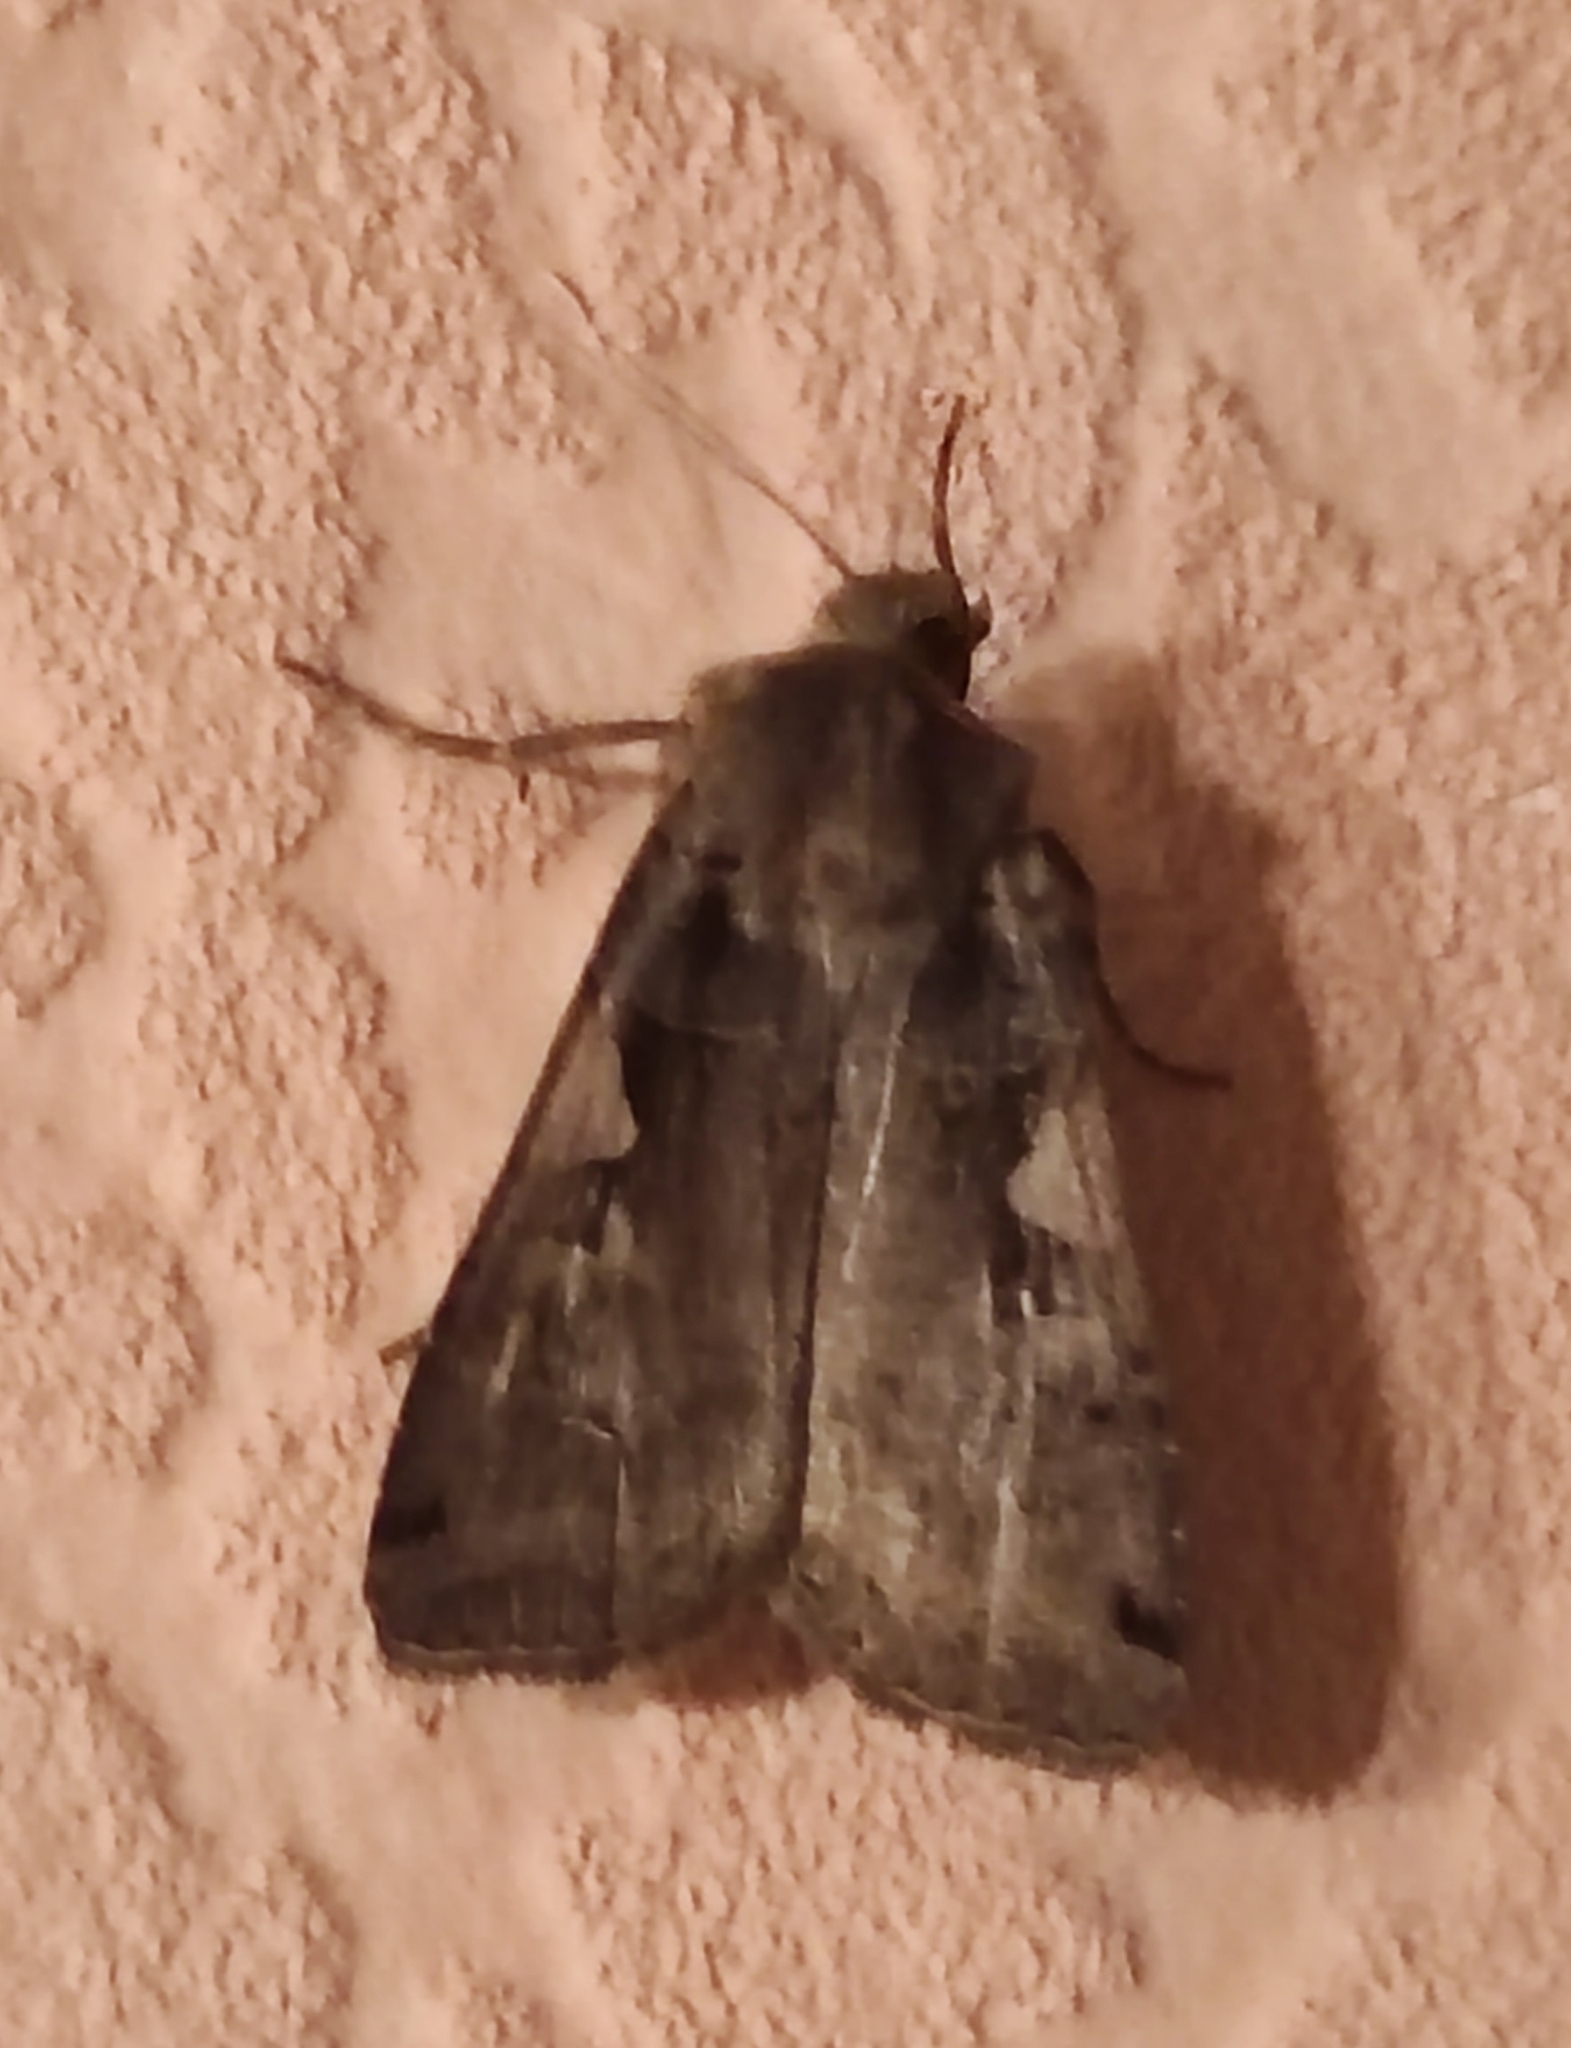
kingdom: Animalia
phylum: Arthropoda
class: Insecta
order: Lepidoptera
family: Noctuidae
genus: Xestia
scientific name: Xestia c-nigrum
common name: Setaceous hebrew character
